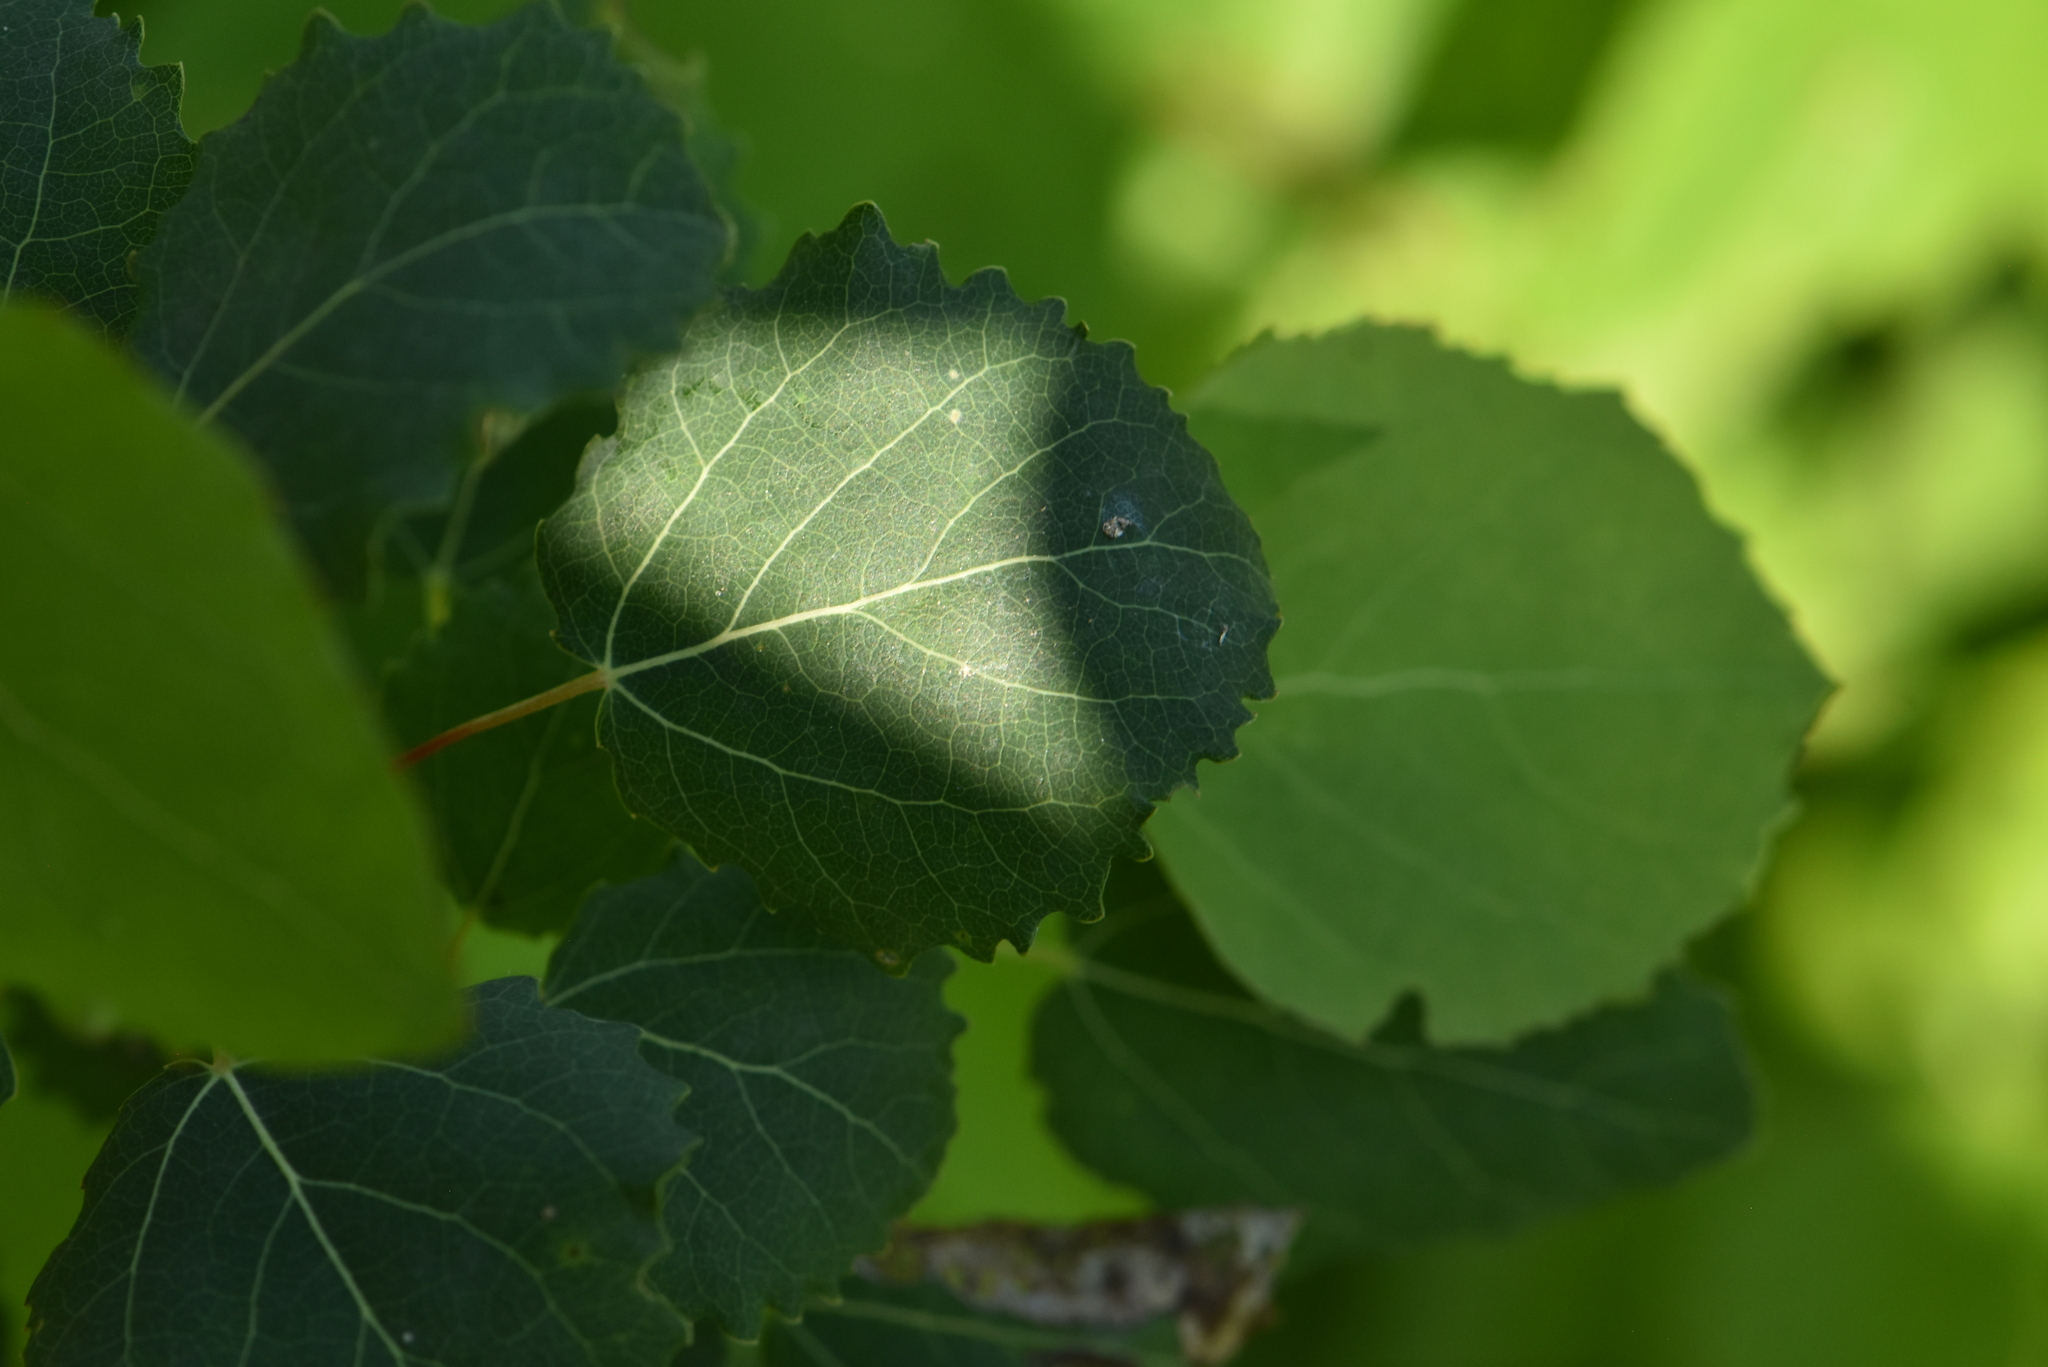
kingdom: Plantae
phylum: Tracheophyta
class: Magnoliopsida
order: Malpighiales
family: Salicaceae
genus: Populus
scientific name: Populus tremula
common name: European aspen
